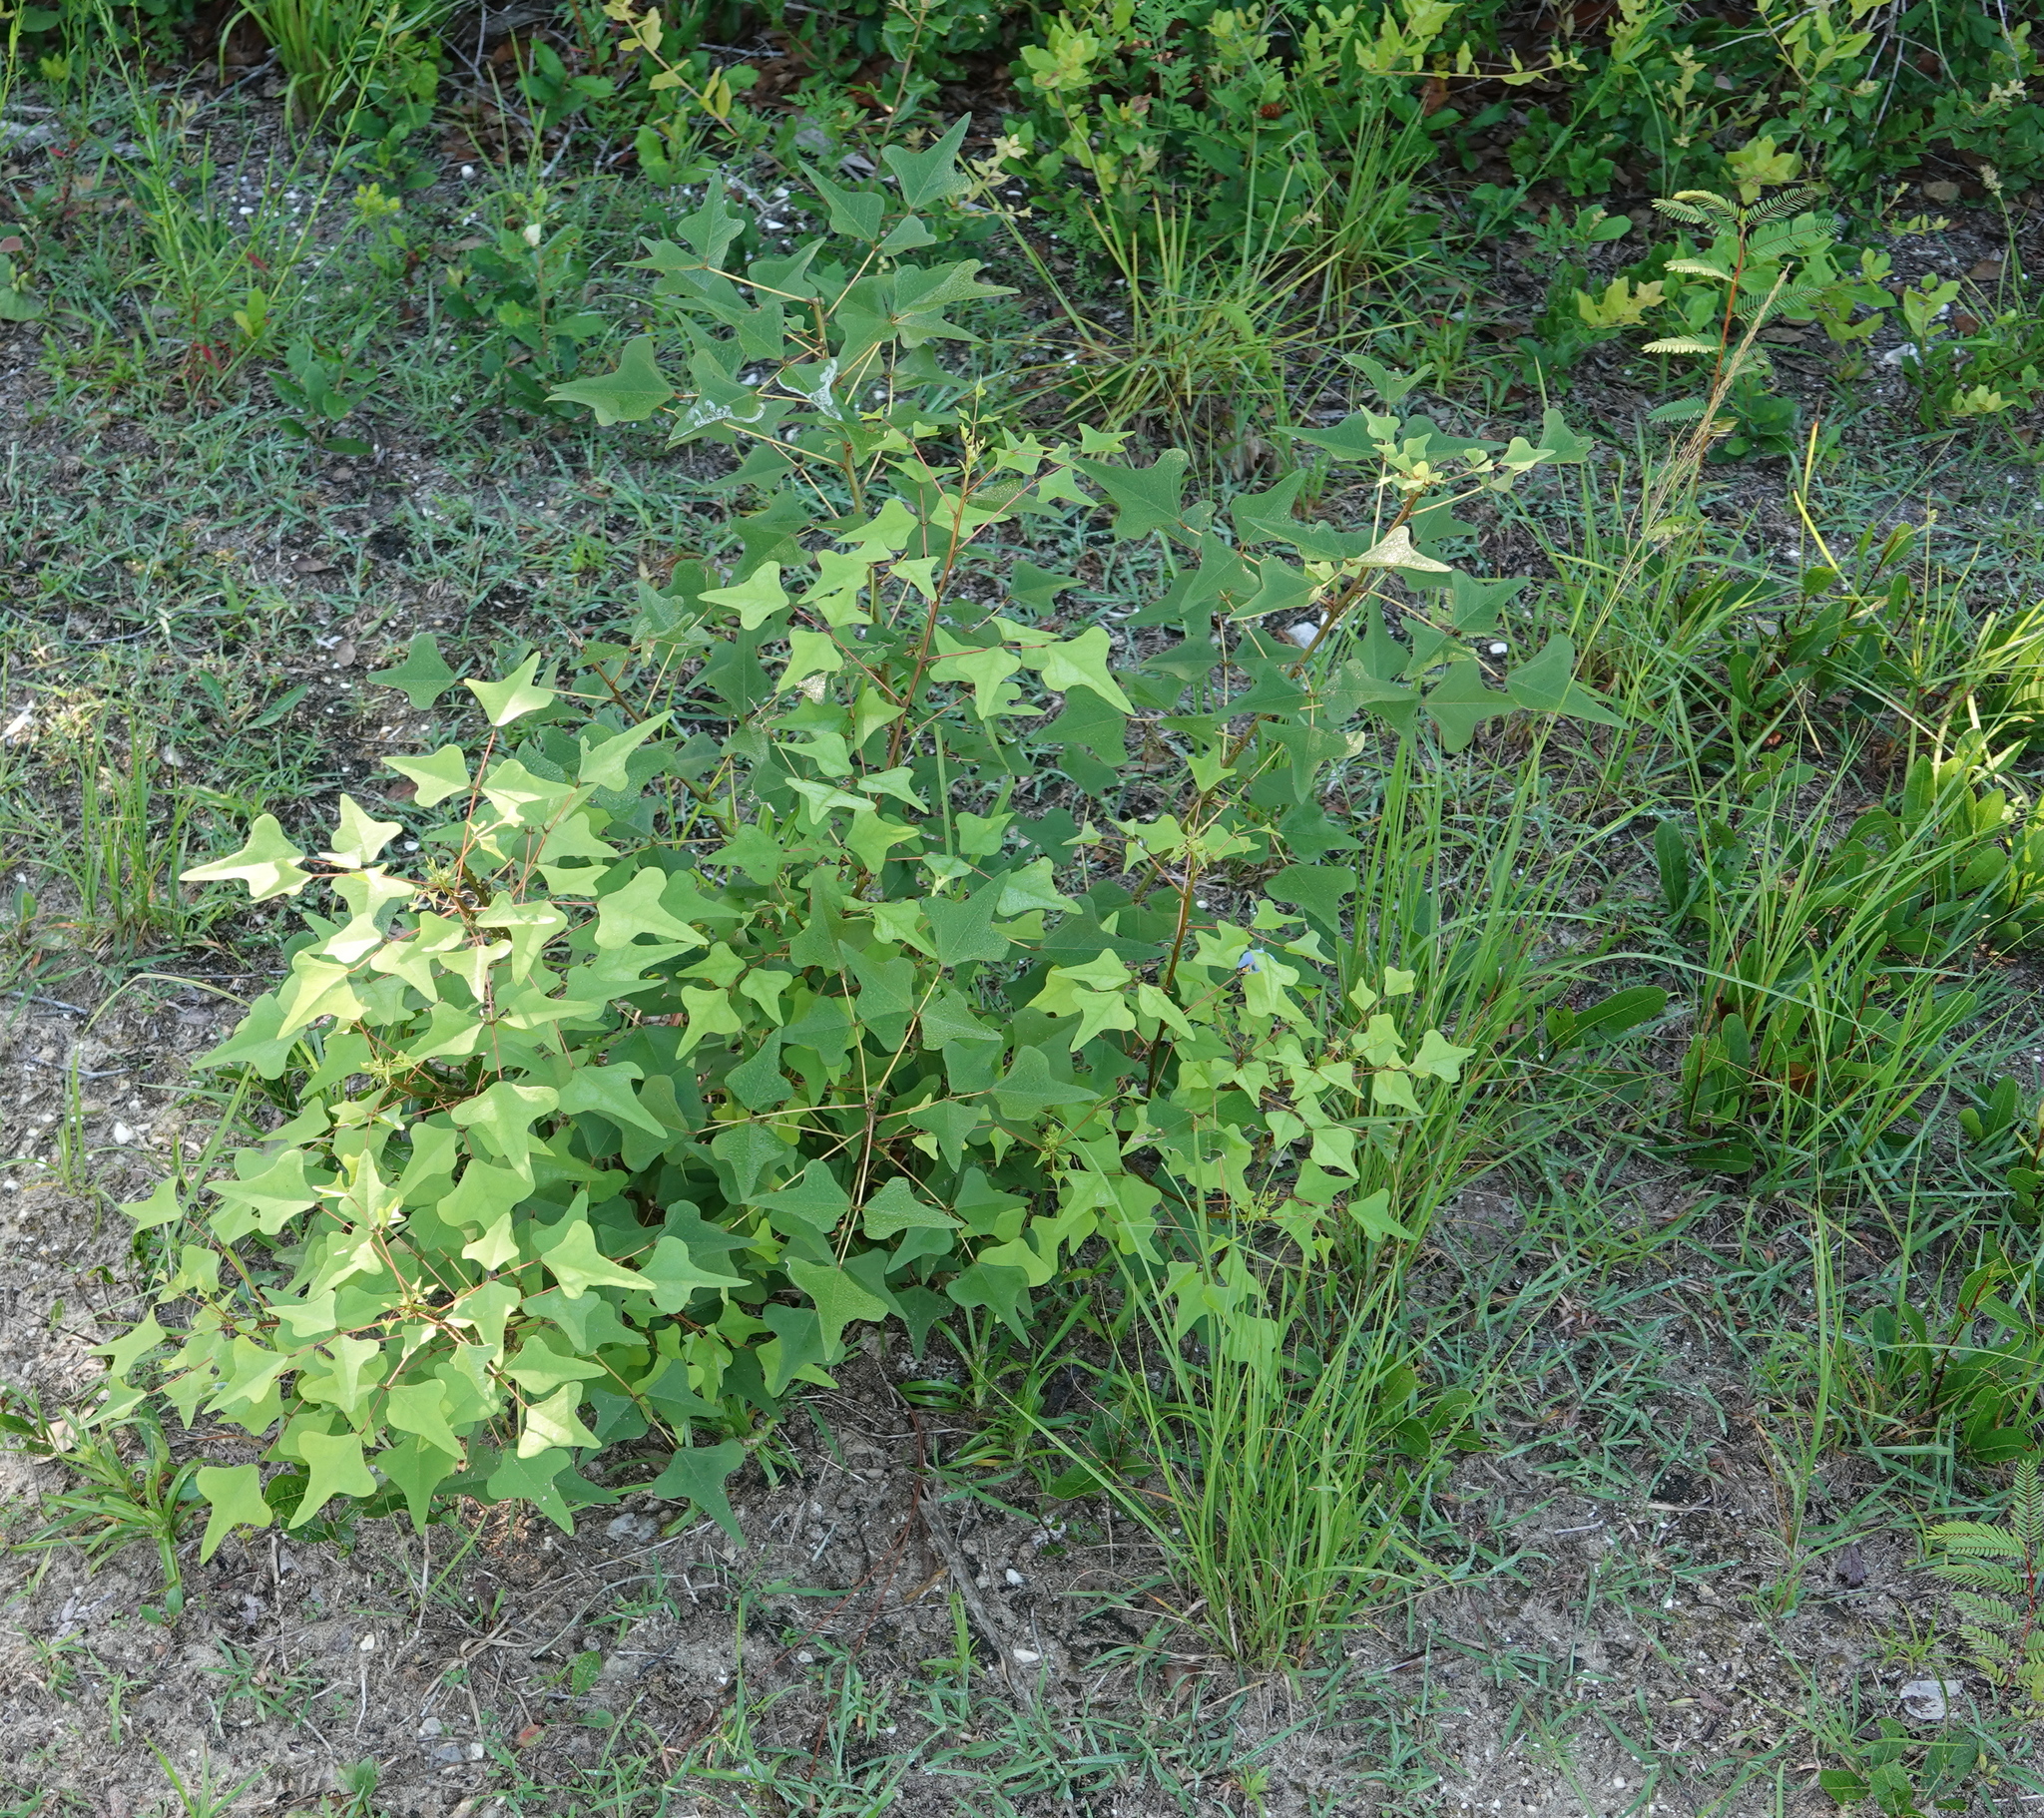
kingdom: Plantae
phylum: Tracheophyta
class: Magnoliopsida
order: Fabales
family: Fabaceae
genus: Erythrina
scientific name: Erythrina herbacea
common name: Coral-bean
